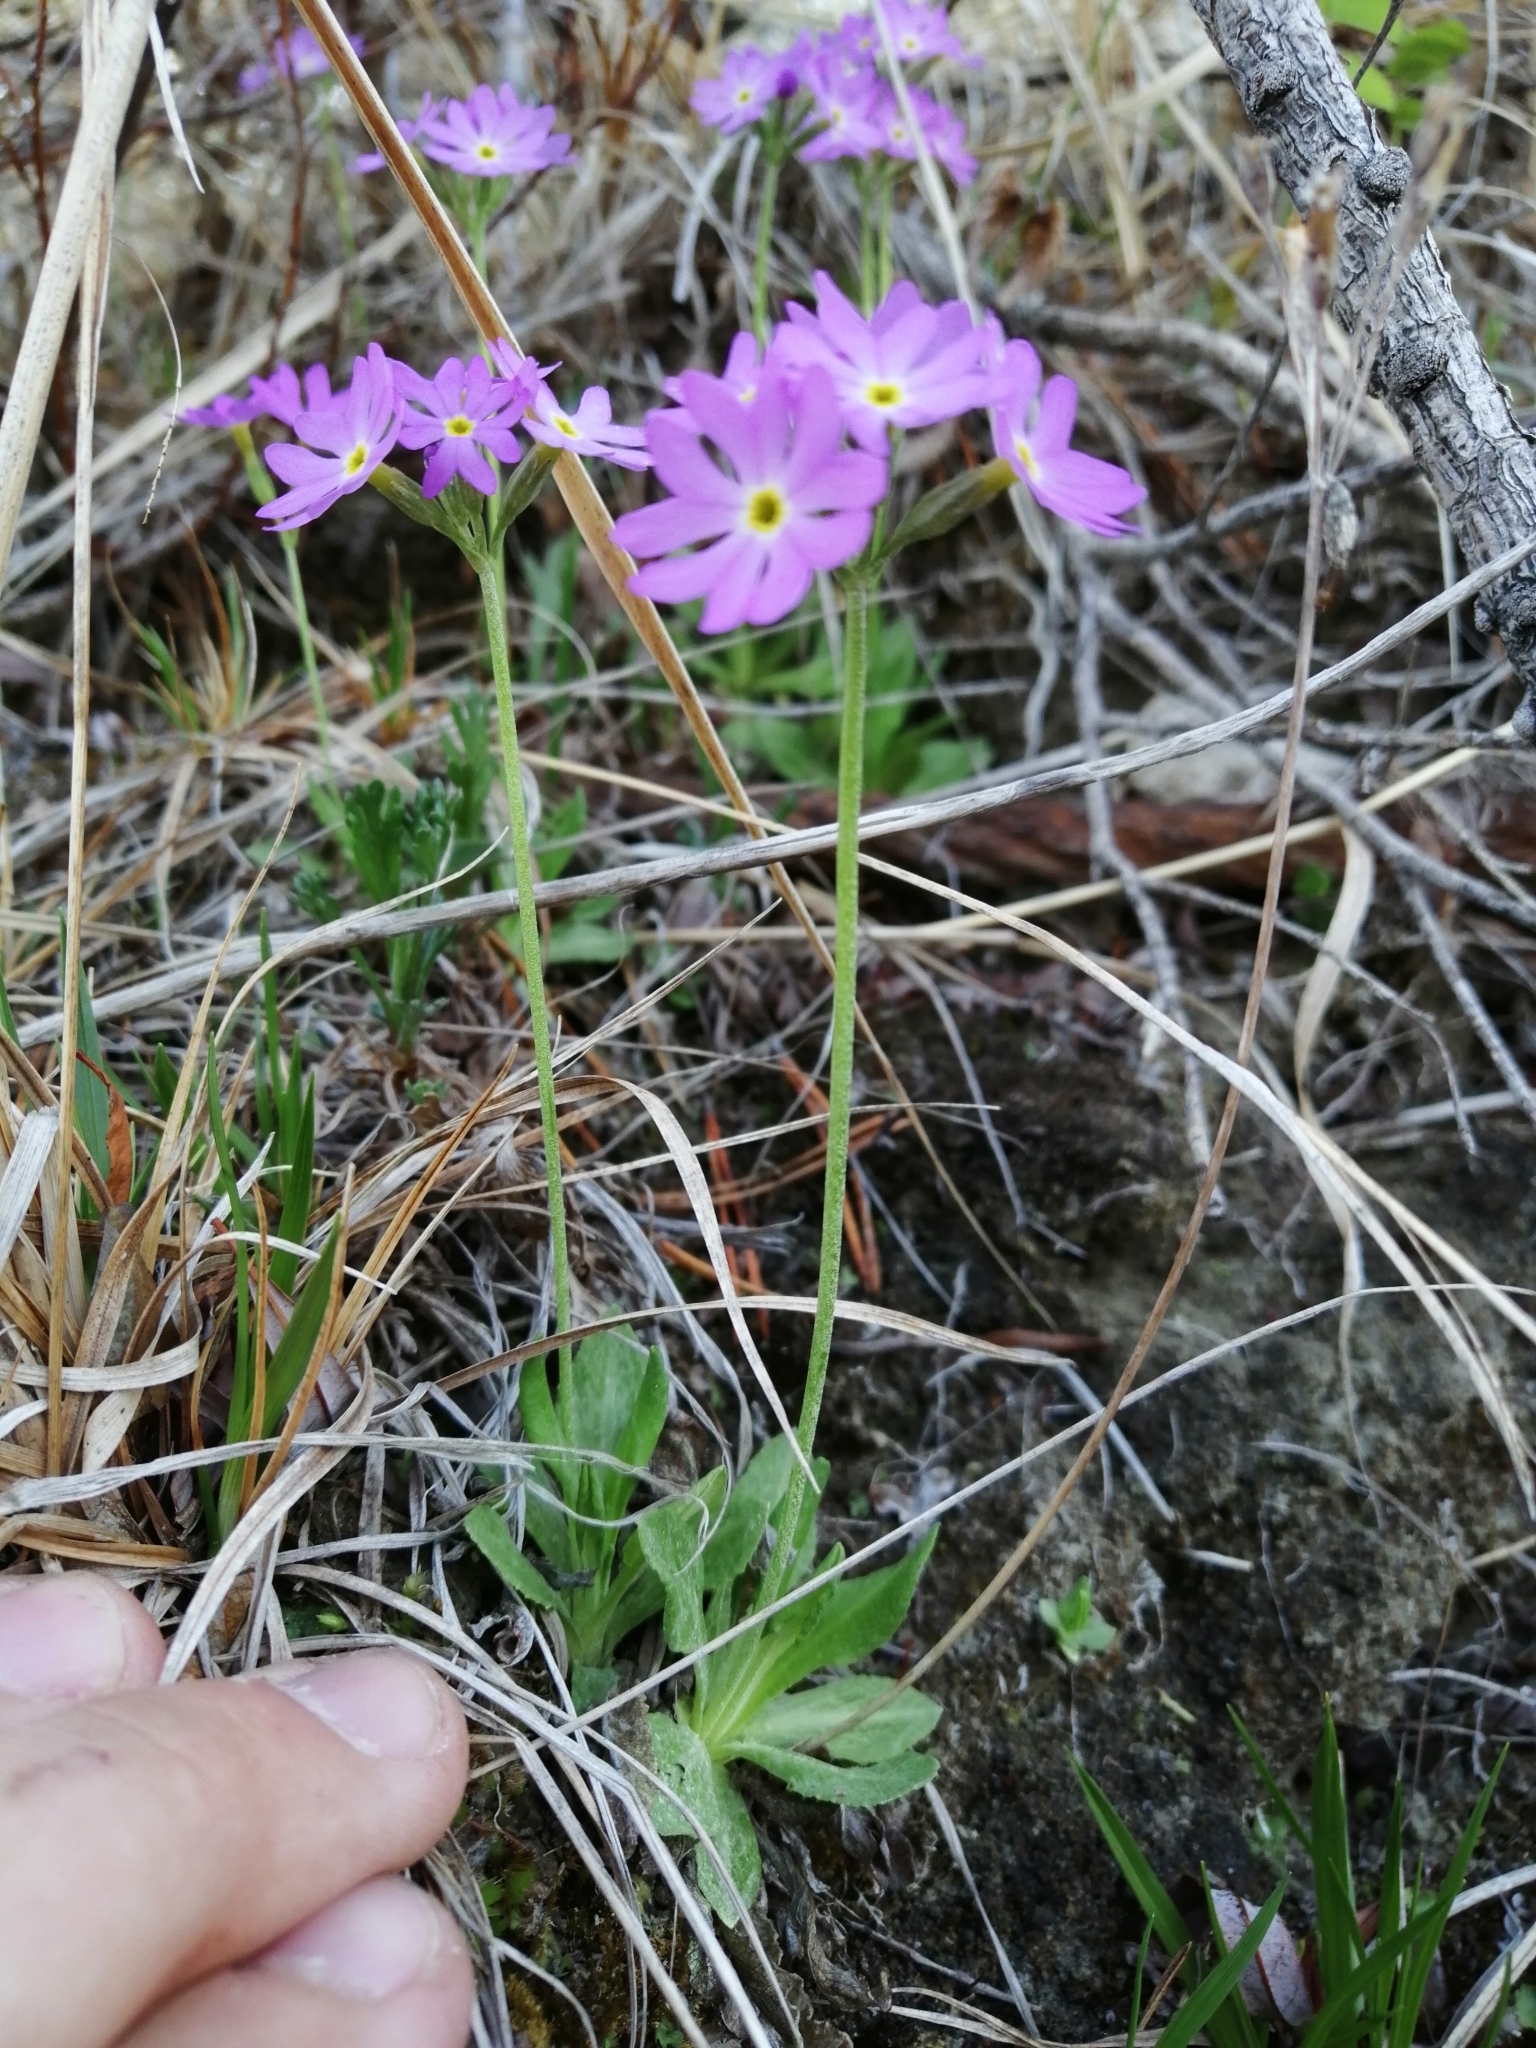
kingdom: Plantae
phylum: Tracheophyta
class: Magnoliopsida
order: Ericales
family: Primulaceae
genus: Primula
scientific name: Primula farinosa
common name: Bird's-eye primrose
